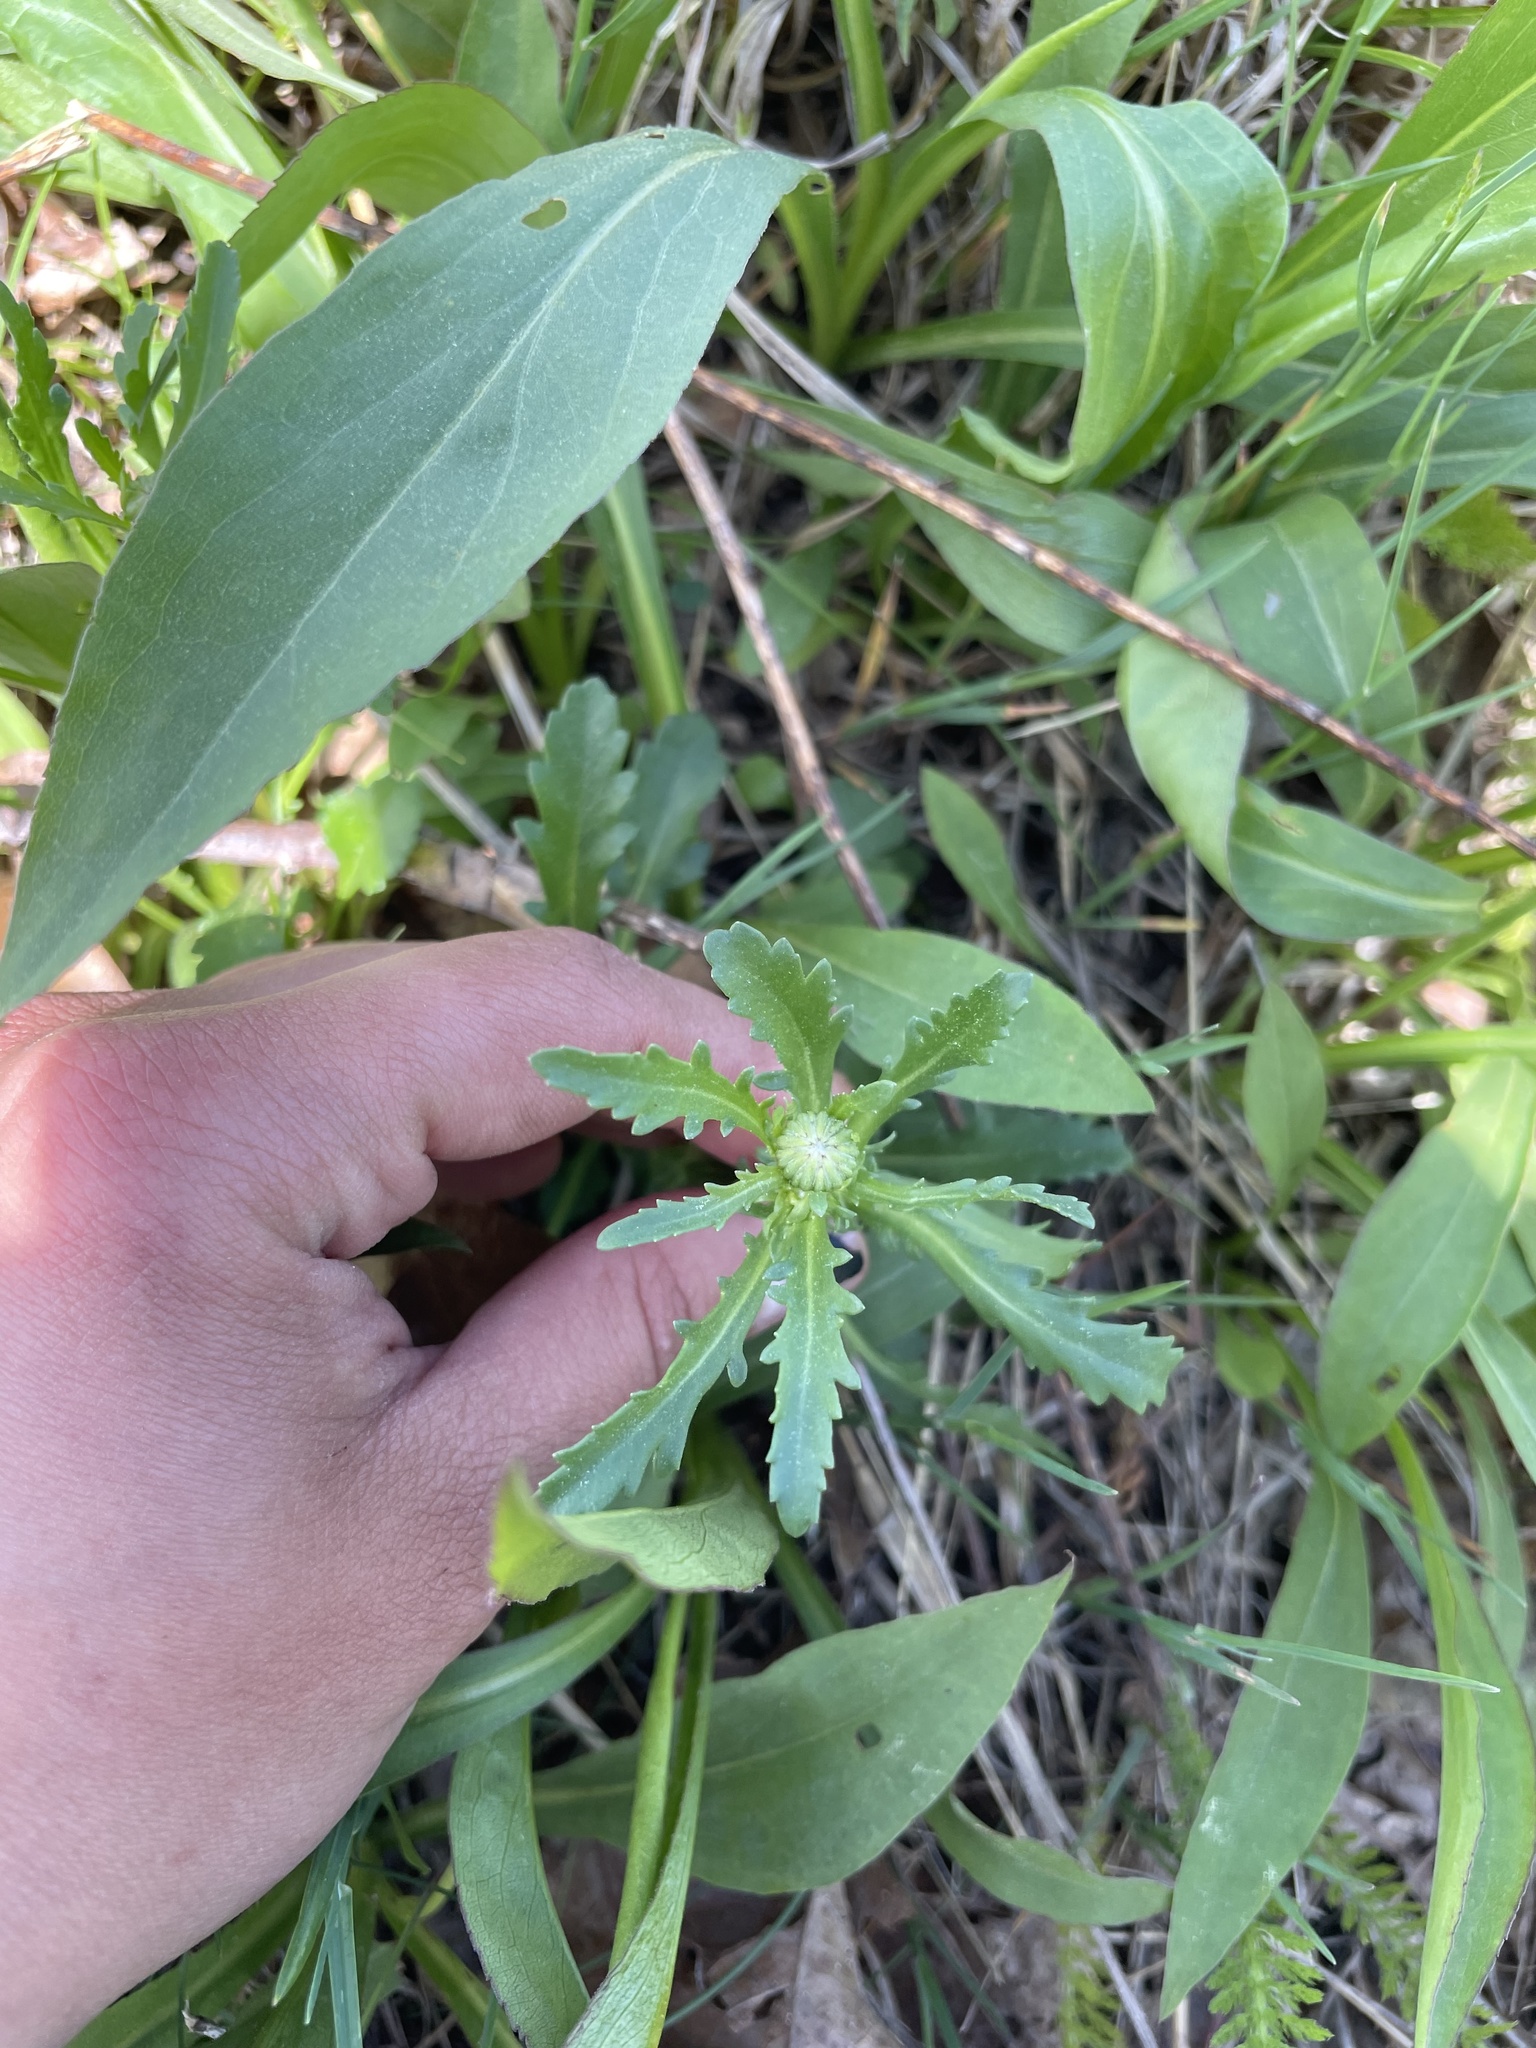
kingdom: Plantae
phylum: Tracheophyta
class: Magnoliopsida
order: Asterales
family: Asteraceae
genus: Leucanthemum
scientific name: Leucanthemum vulgare
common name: Oxeye daisy
